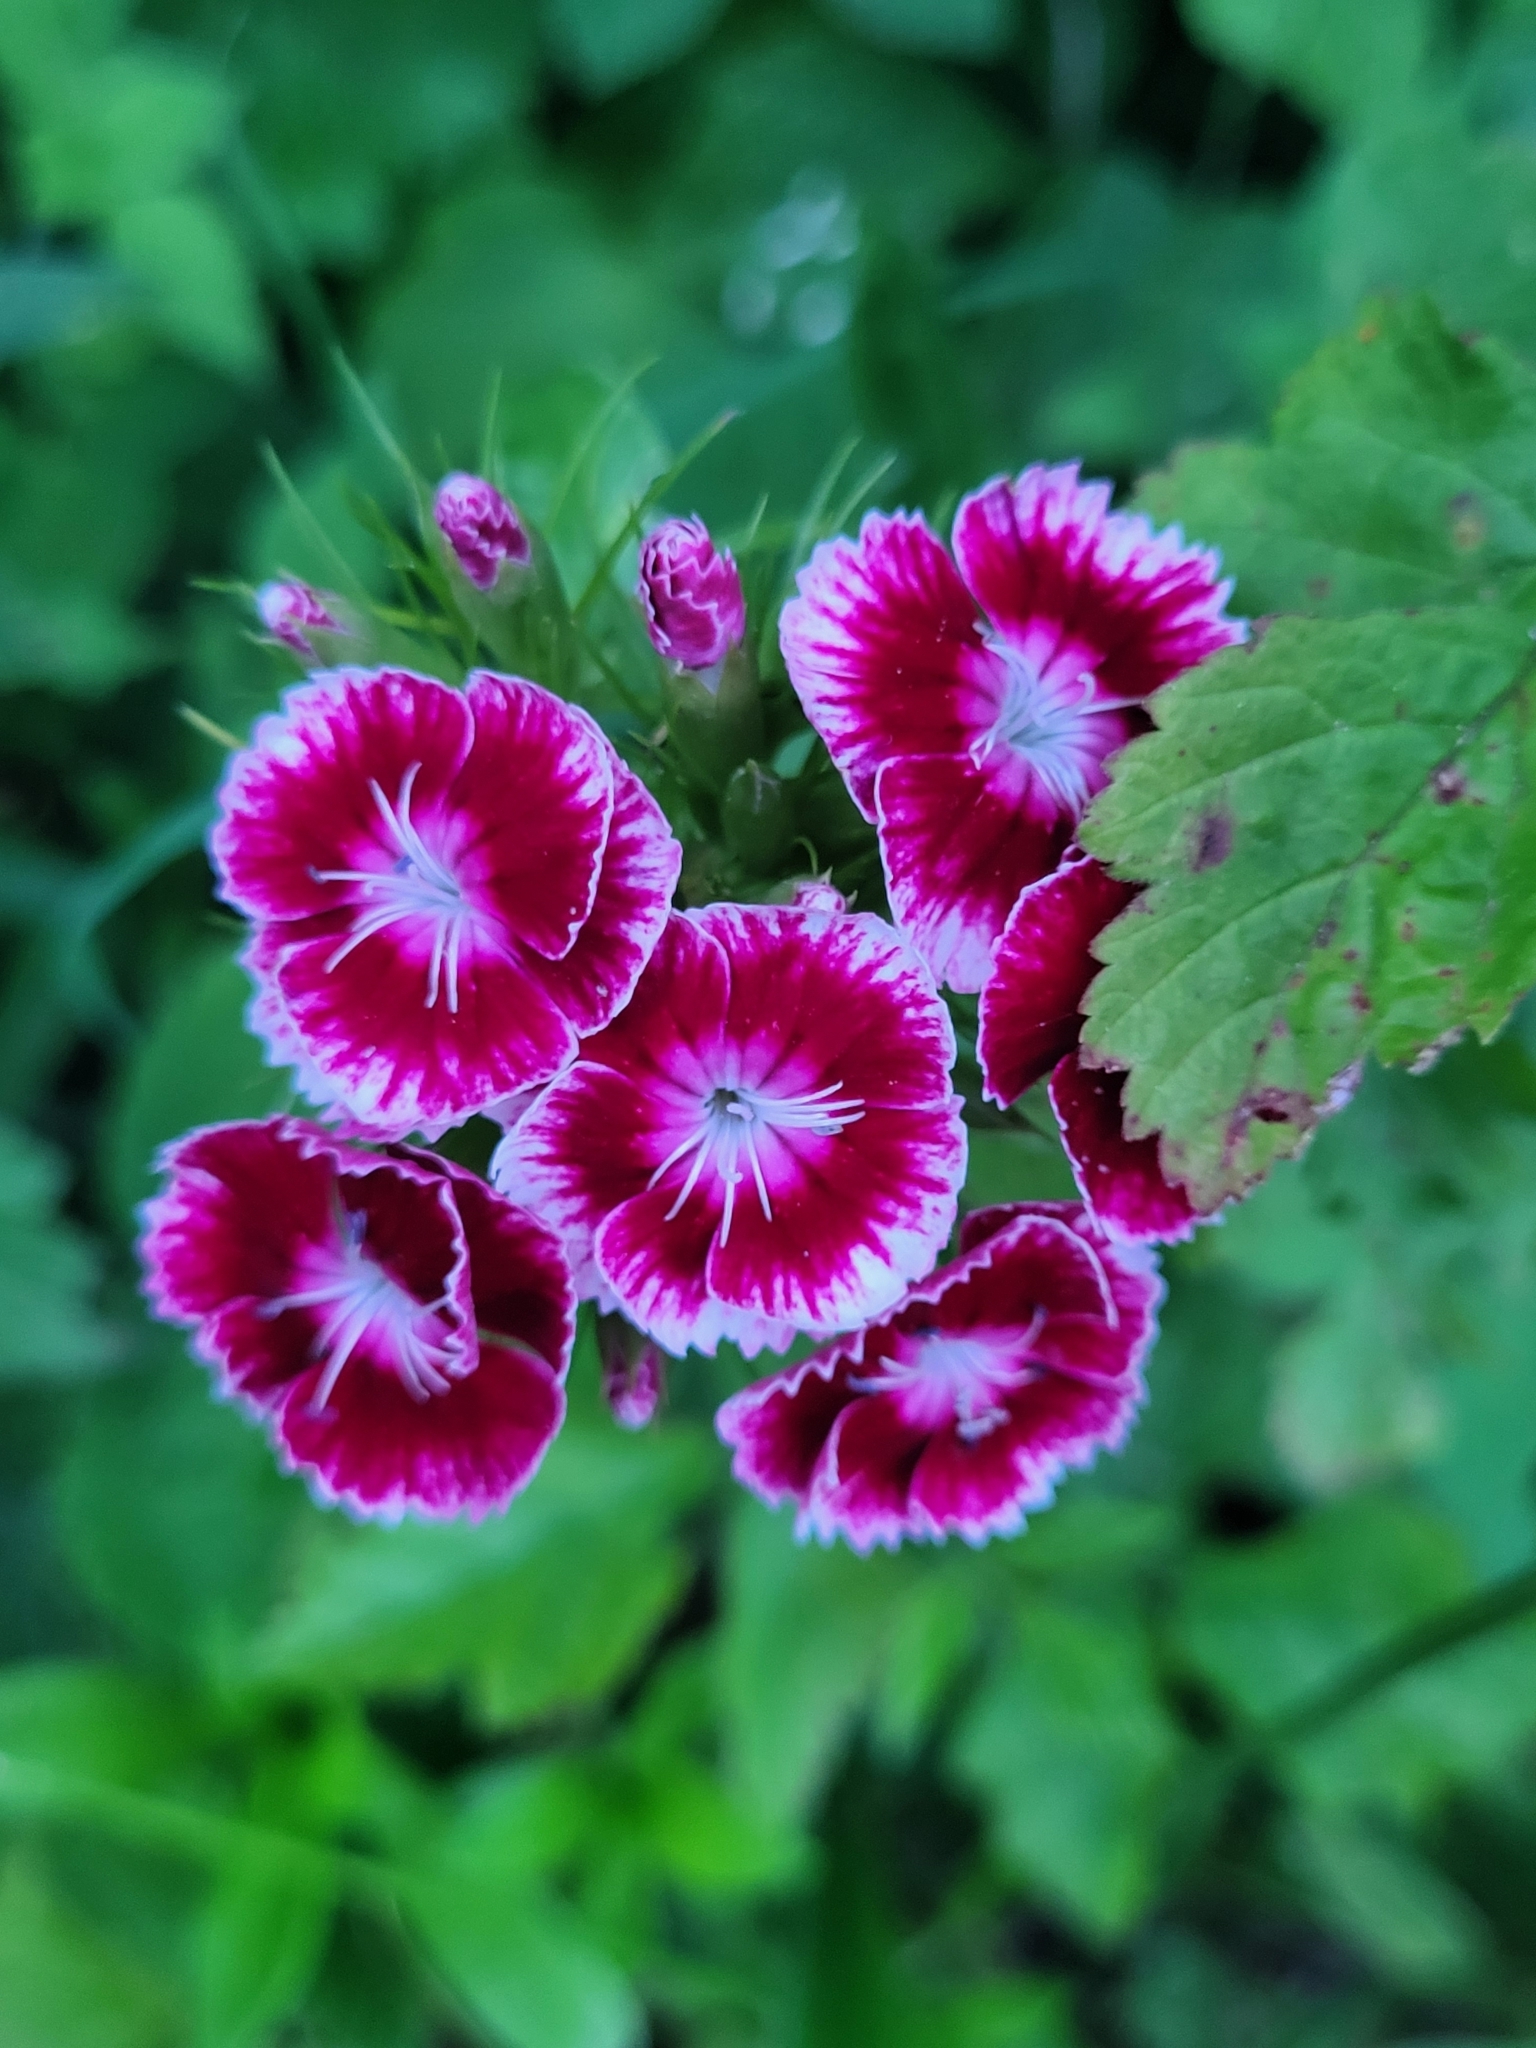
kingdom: Plantae
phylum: Tracheophyta
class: Magnoliopsida
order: Caryophyllales
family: Caryophyllaceae
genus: Dianthus
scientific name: Dianthus barbatus
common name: Sweet-william
